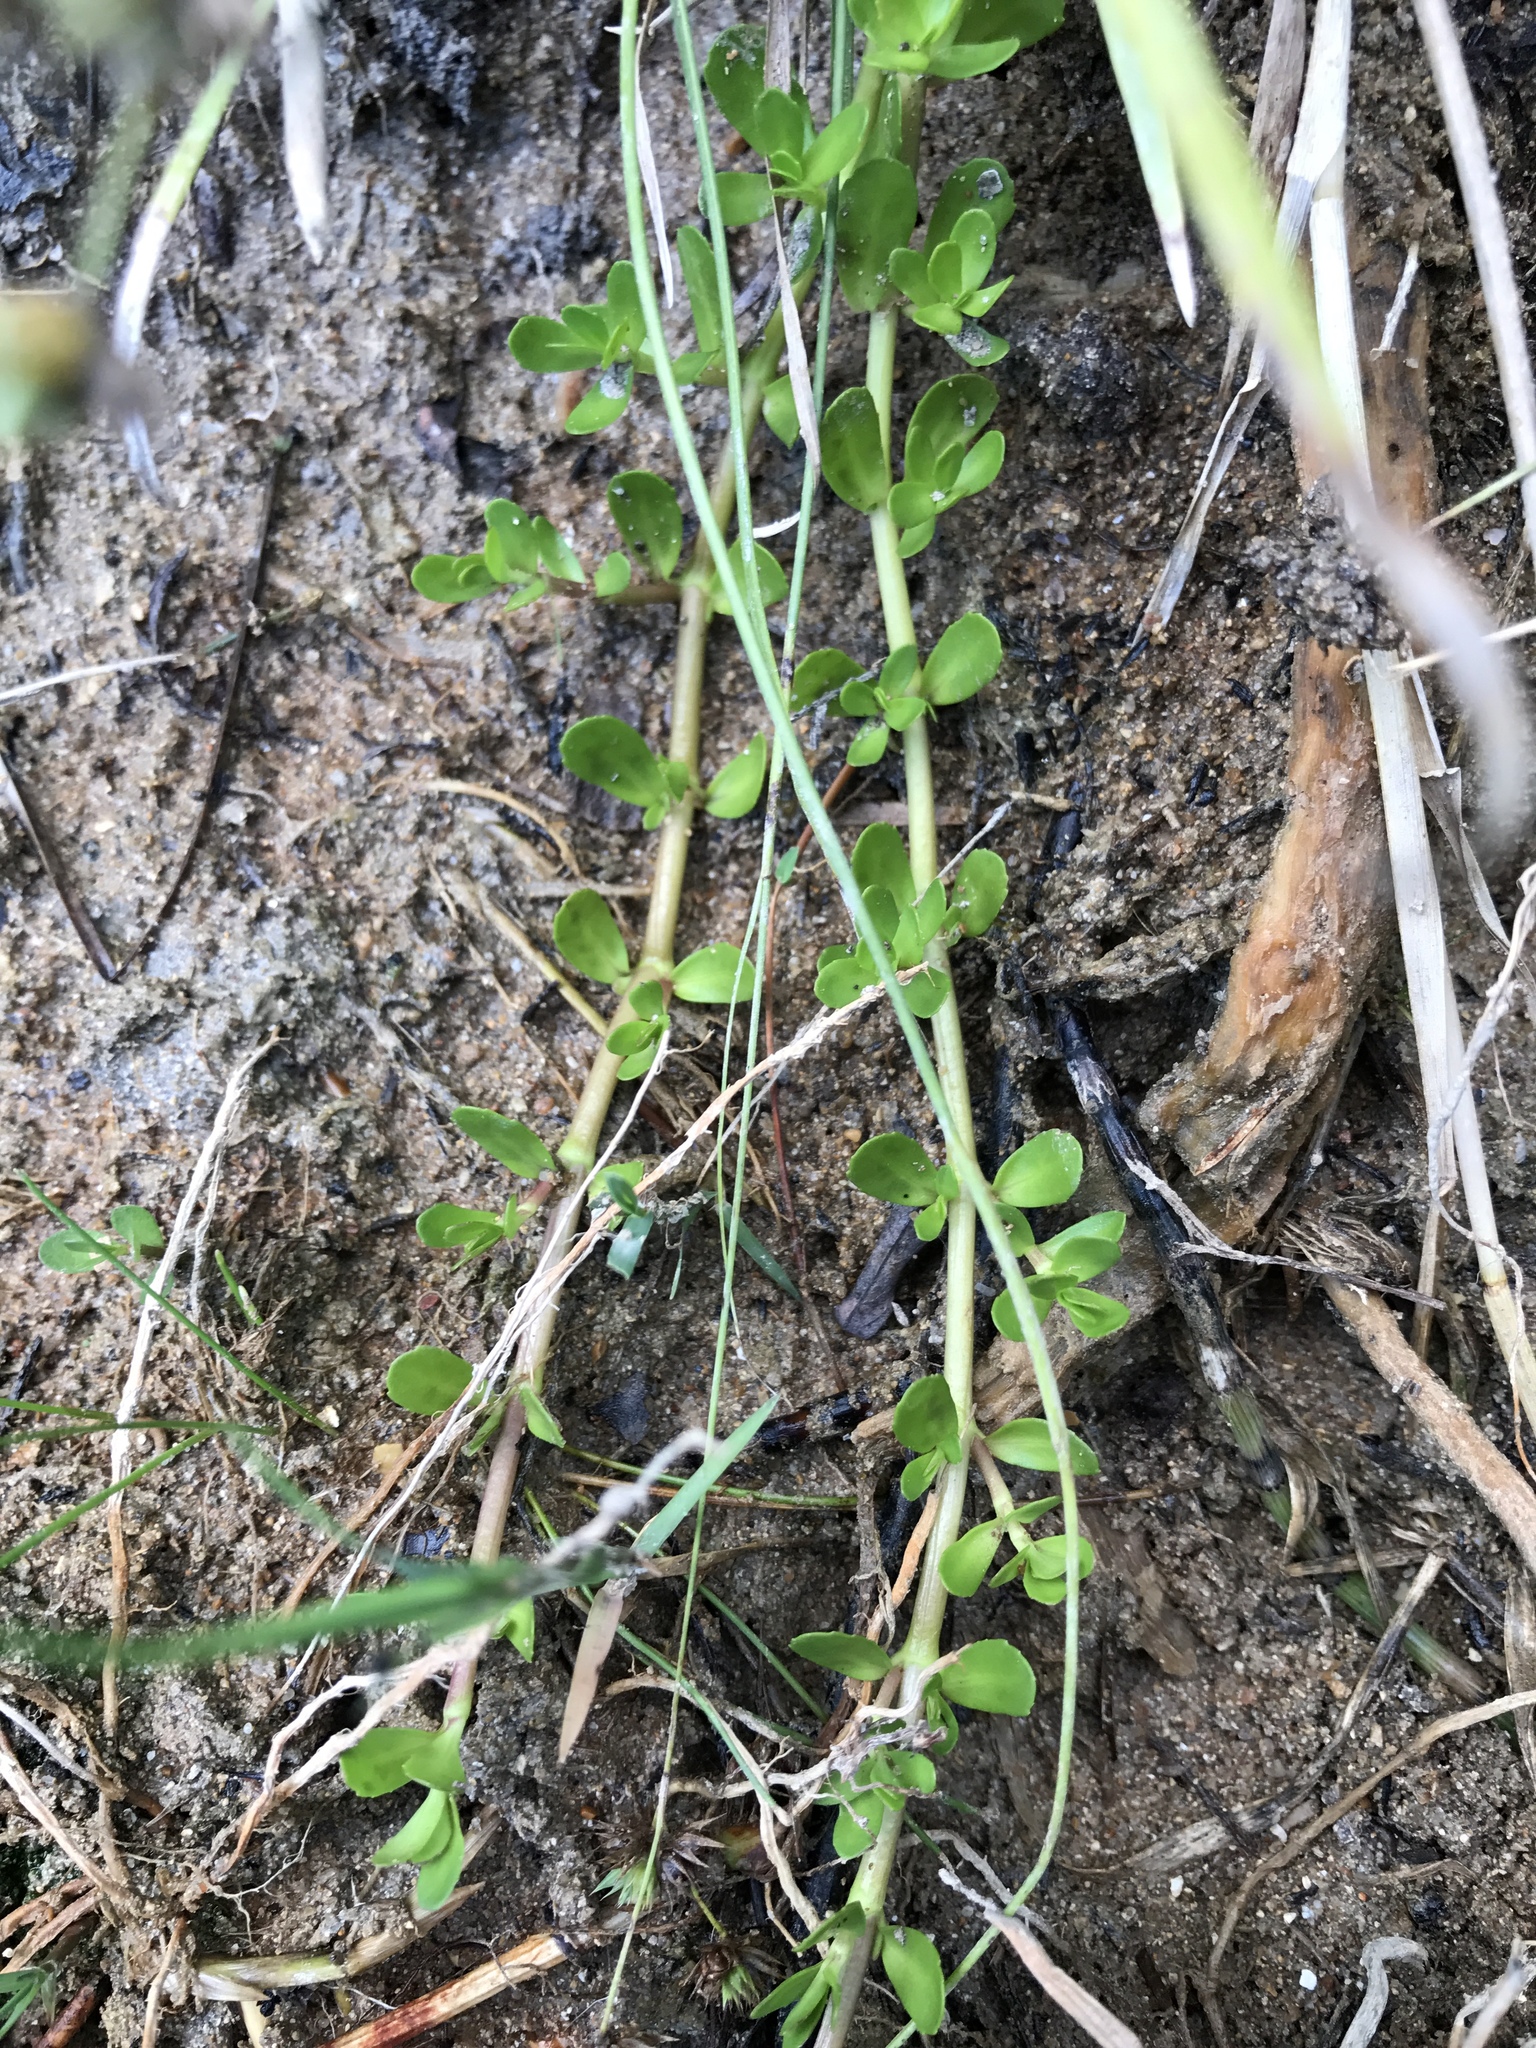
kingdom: Plantae
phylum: Tracheophyta
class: Magnoliopsida
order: Lamiales
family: Plantaginaceae
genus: Bacopa
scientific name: Bacopa monnieri
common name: Indian-pennywort
